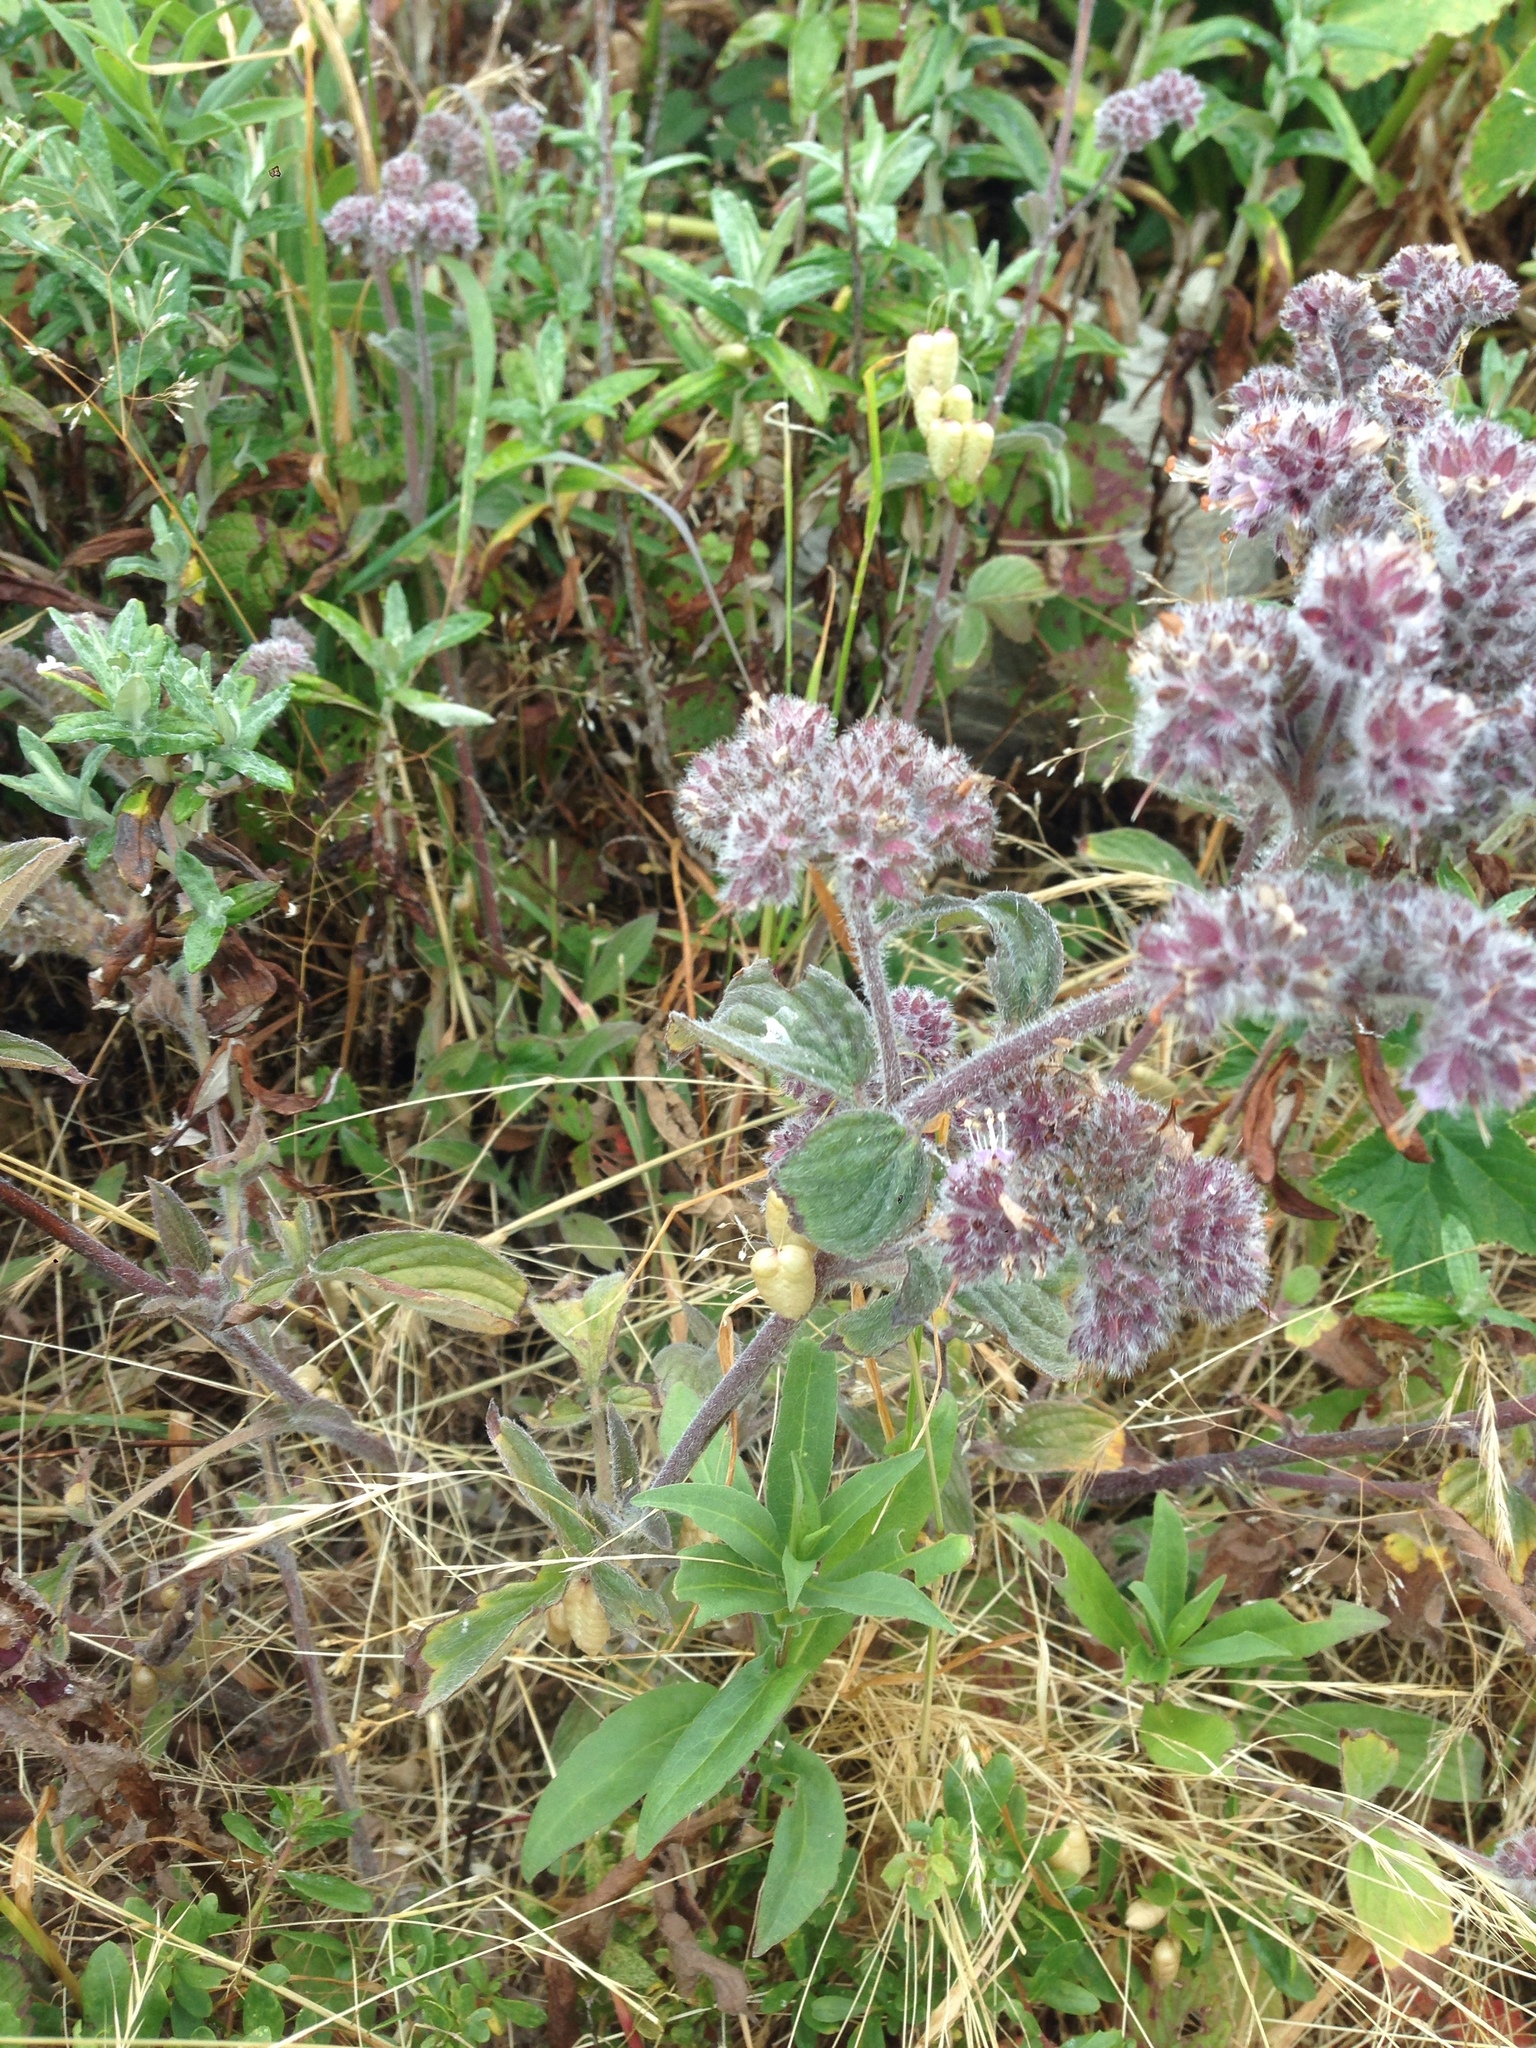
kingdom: Plantae
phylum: Tracheophyta
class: Magnoliopsida
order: Boraginales
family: Hydrophyllaceae
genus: Phacelia
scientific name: Phacelia californica
